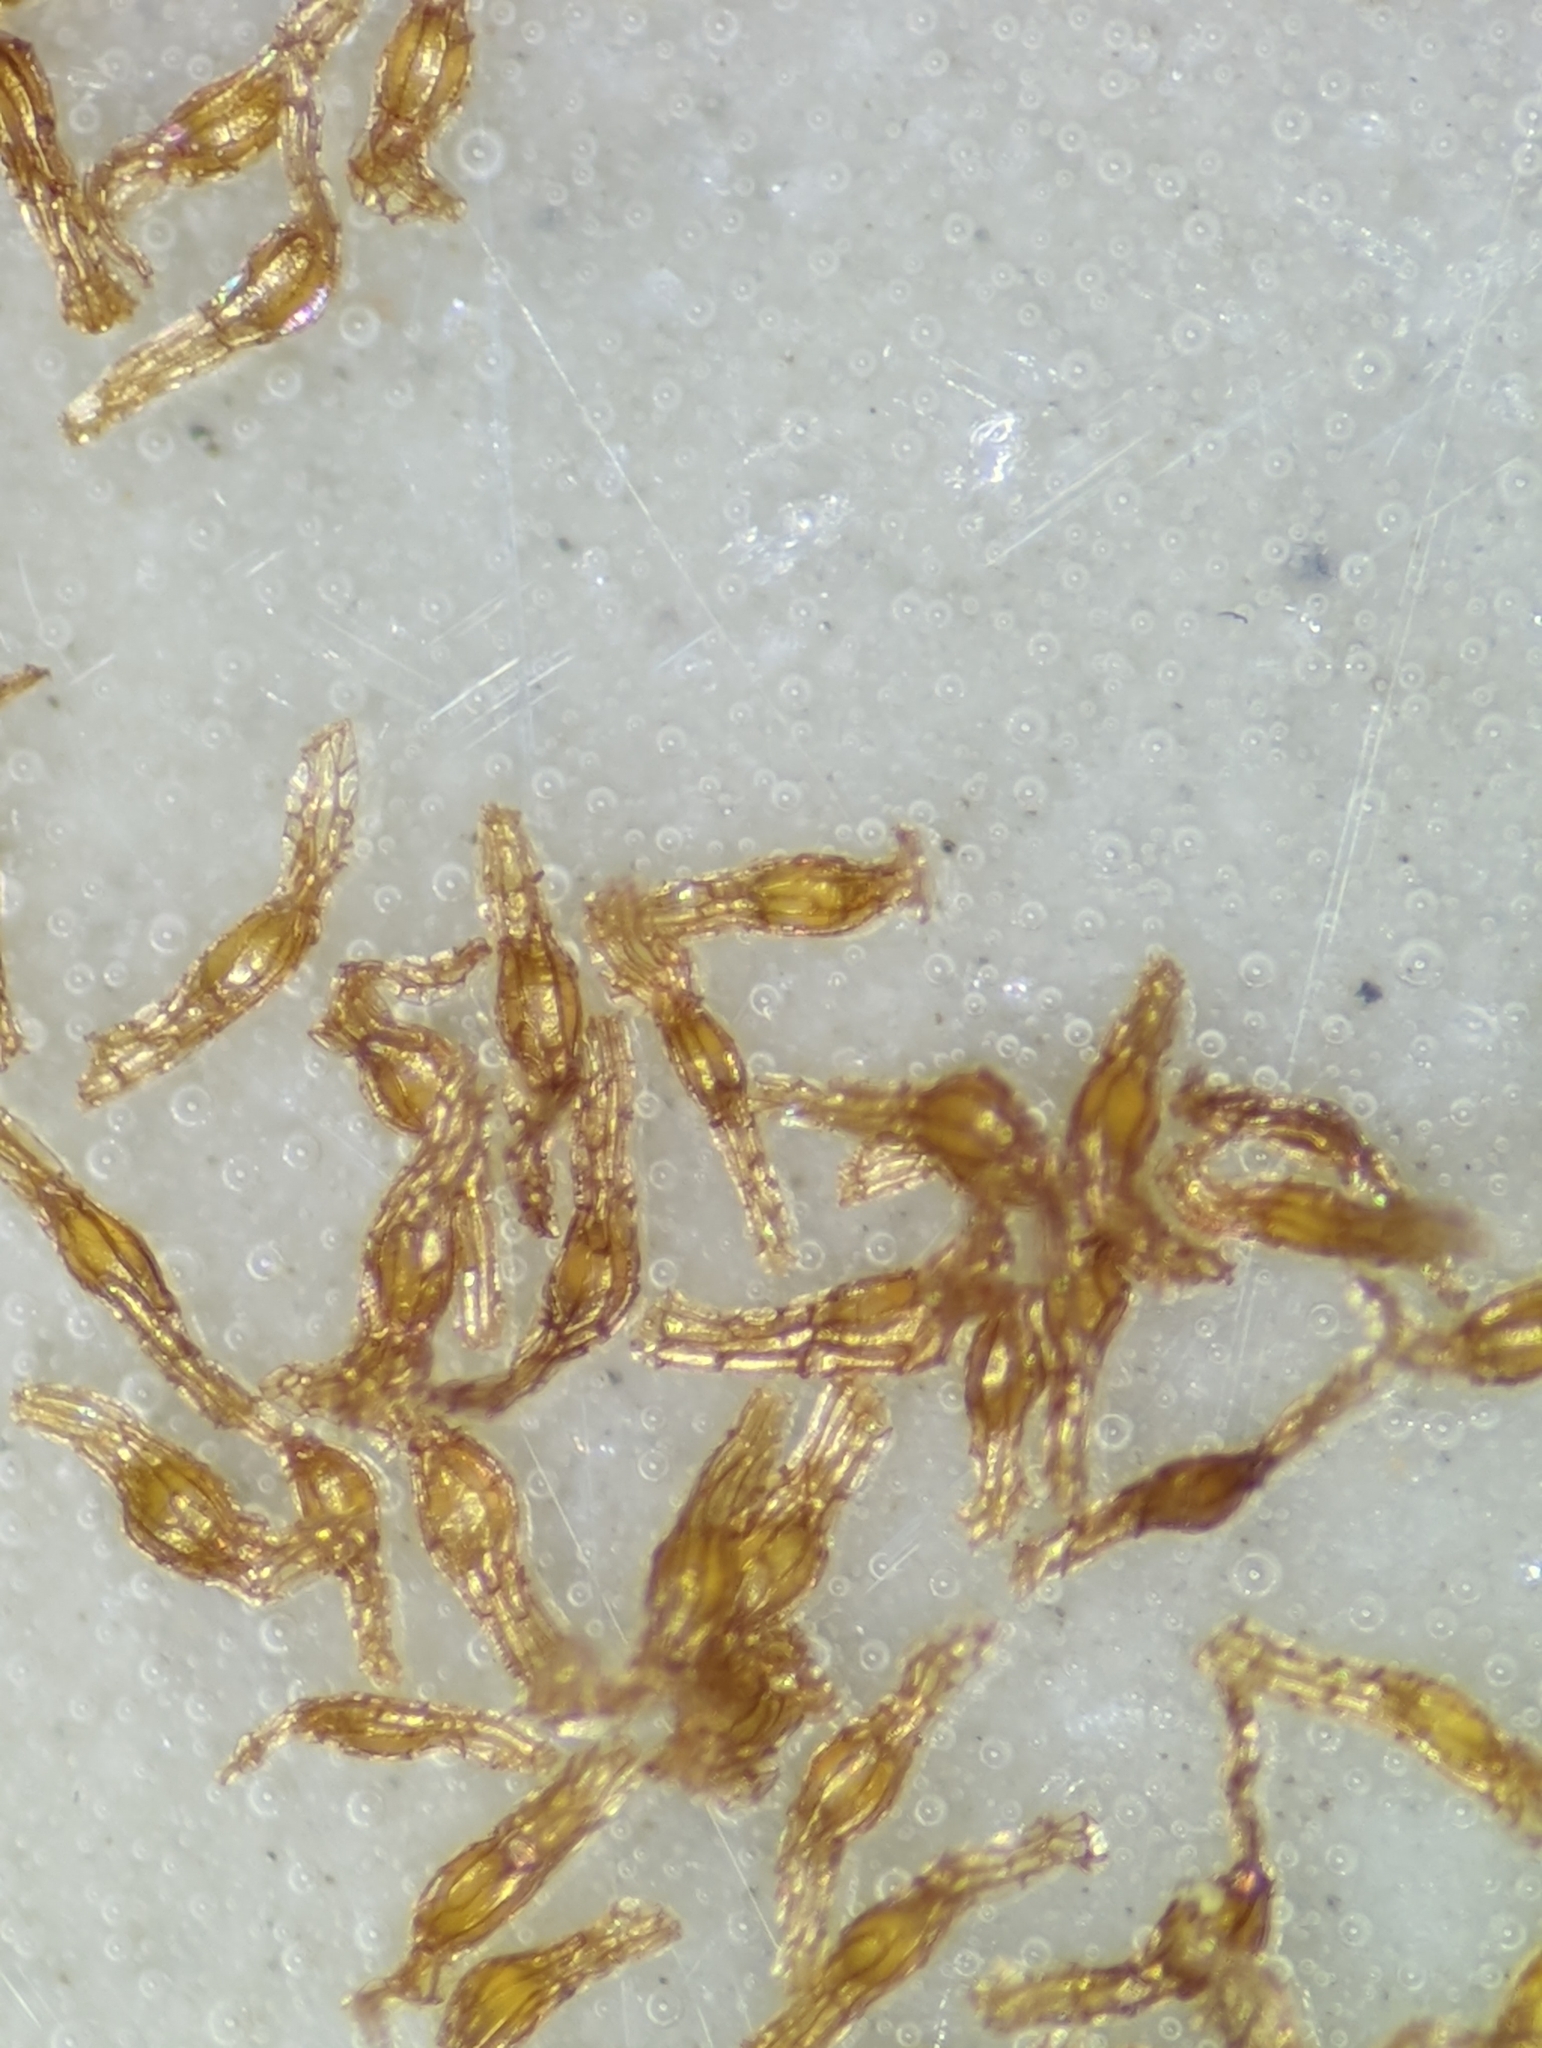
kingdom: Plantae
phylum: Tracheophyta
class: Magnoliopsida
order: Ericales
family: Ericaceae
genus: Chimaphila
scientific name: Chimaphila maculata
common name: Spotted pipsissewa
